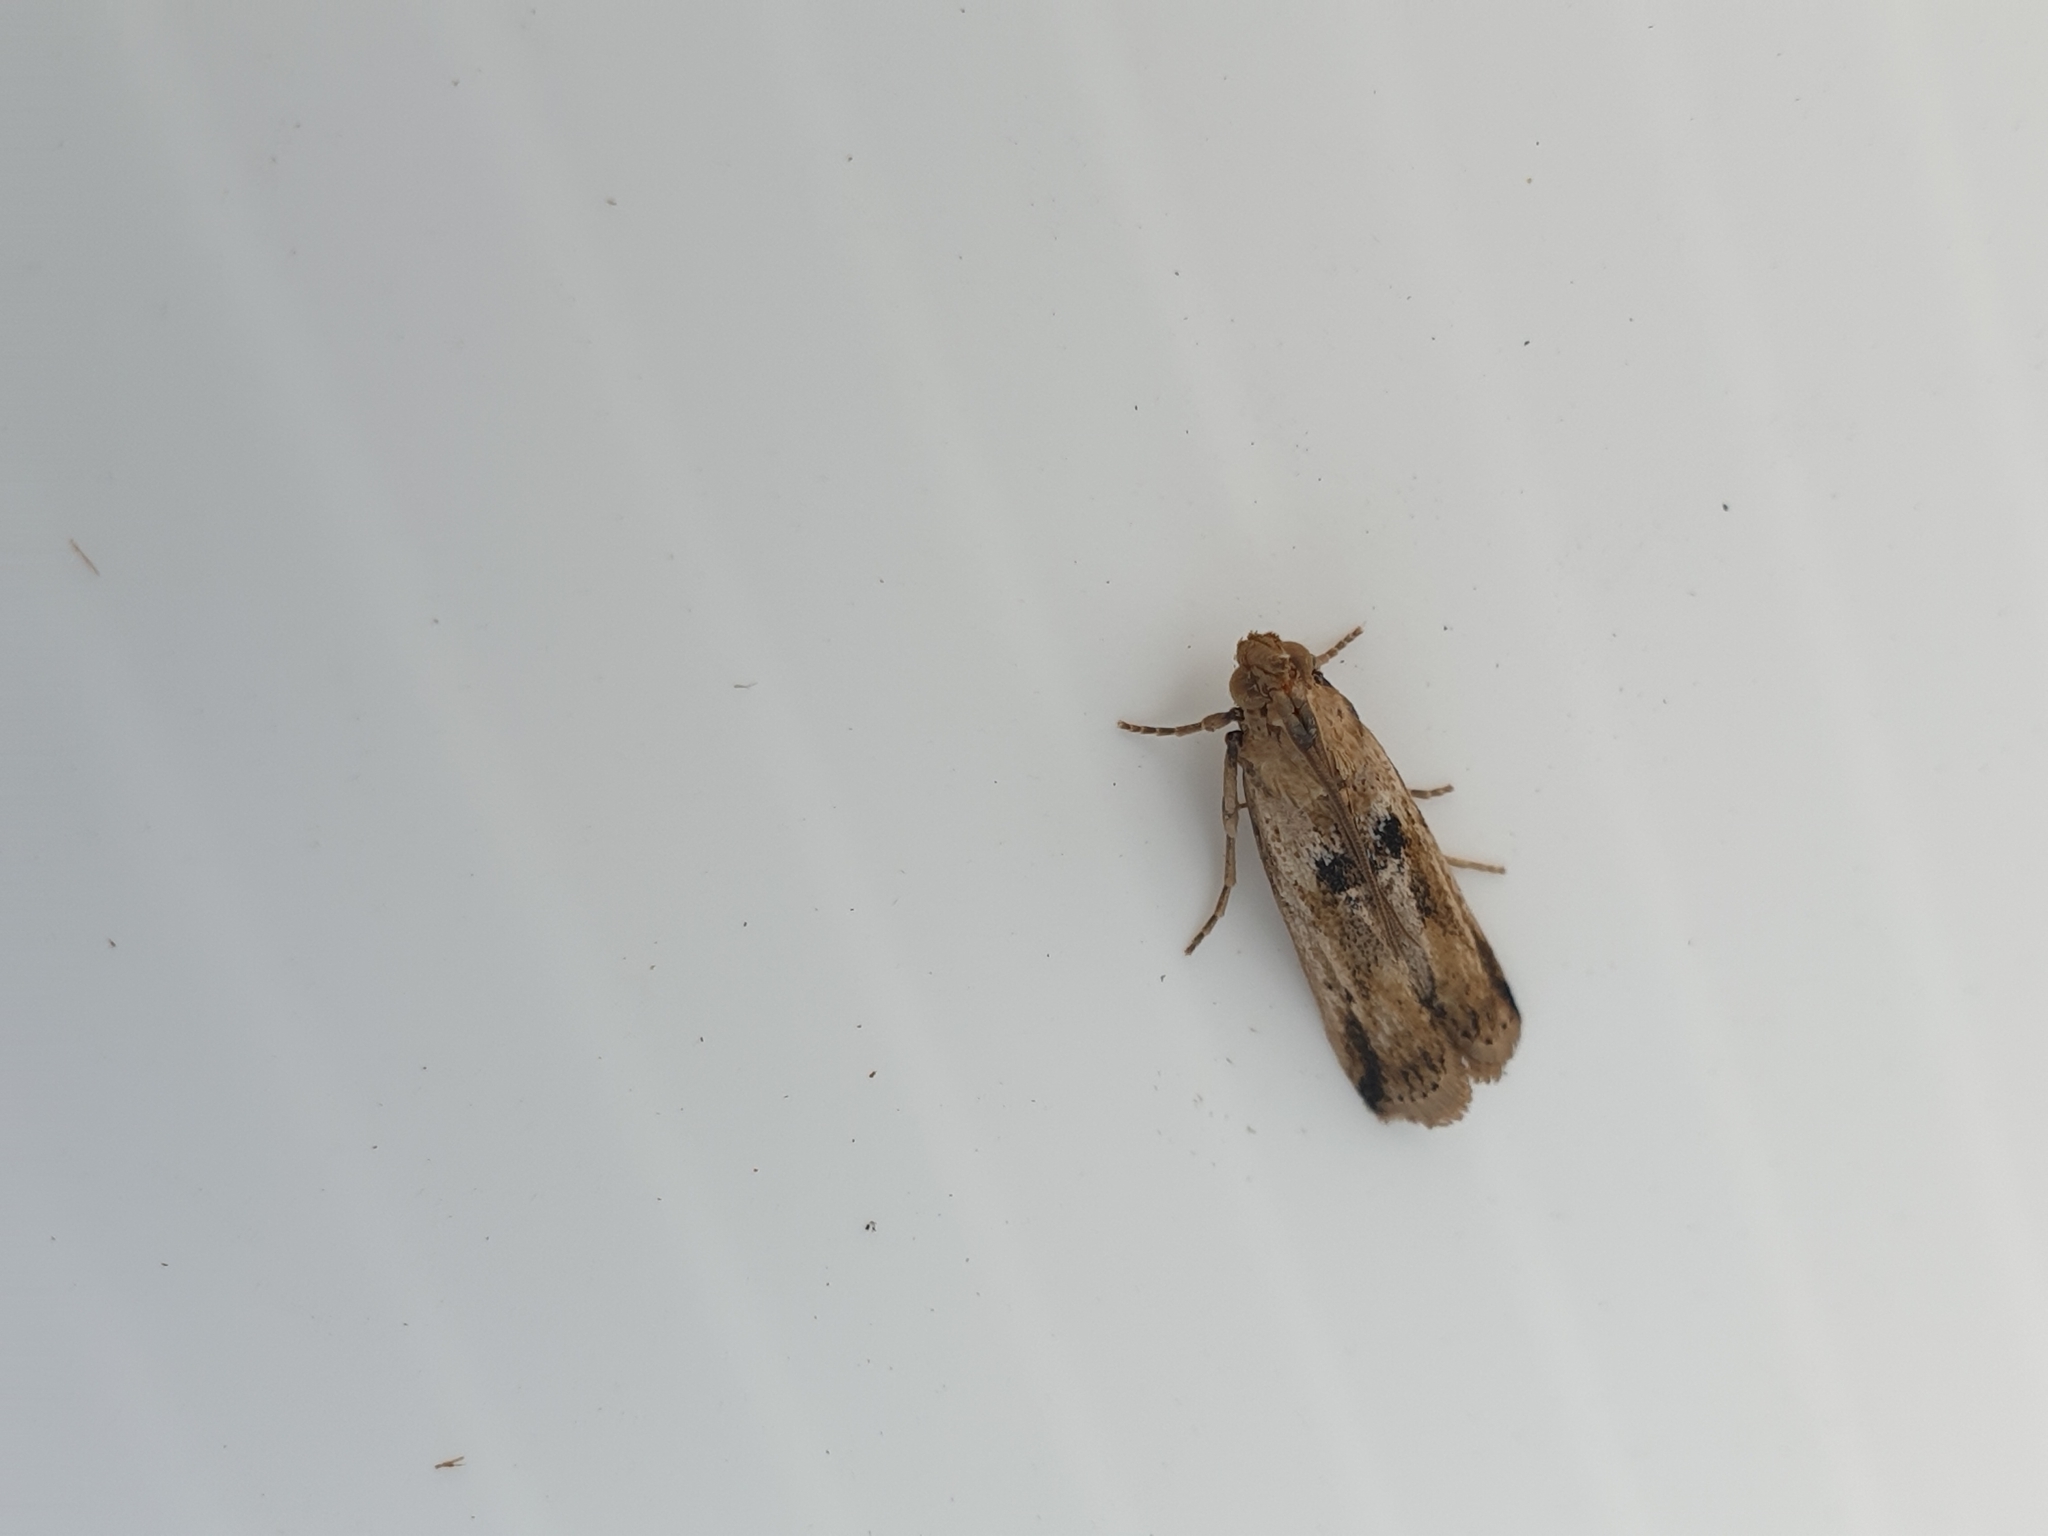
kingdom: Animalia
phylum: Arthropoda
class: Insecta
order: Lepidoptera
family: Pyralidae
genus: Faveria
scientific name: Faveria laiasalis
